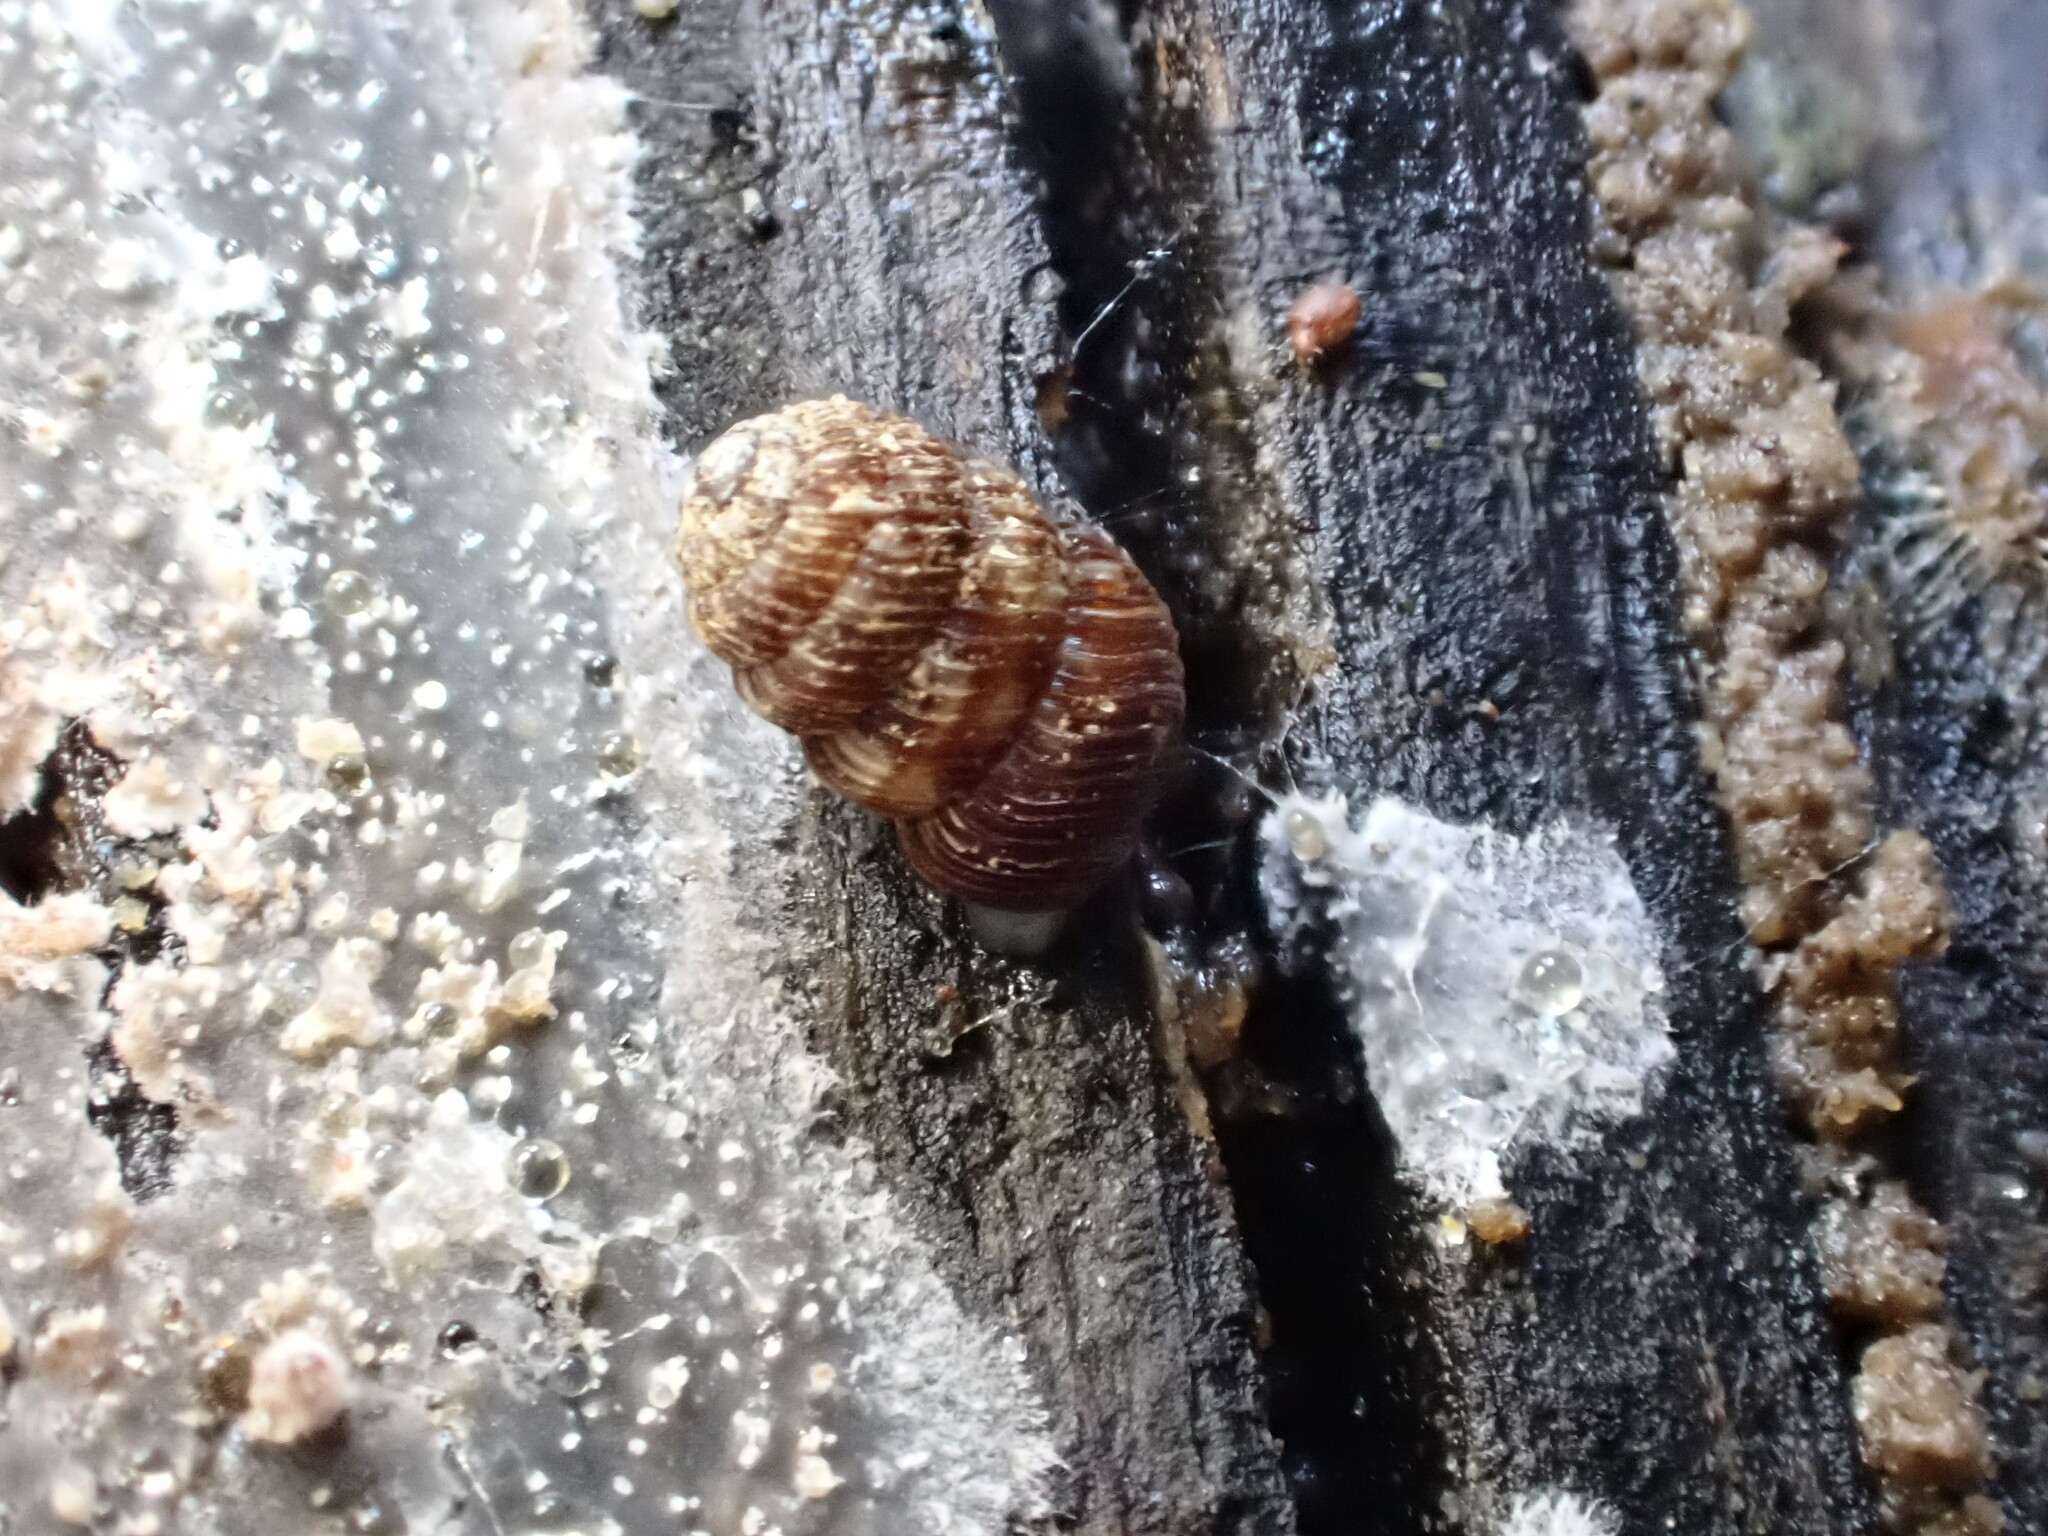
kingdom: Animalia
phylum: Mollusca
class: Gastropoda
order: Stylommatophora
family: Charopidae
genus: Phenacharopa
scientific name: Phenacharopa novoseelandica
